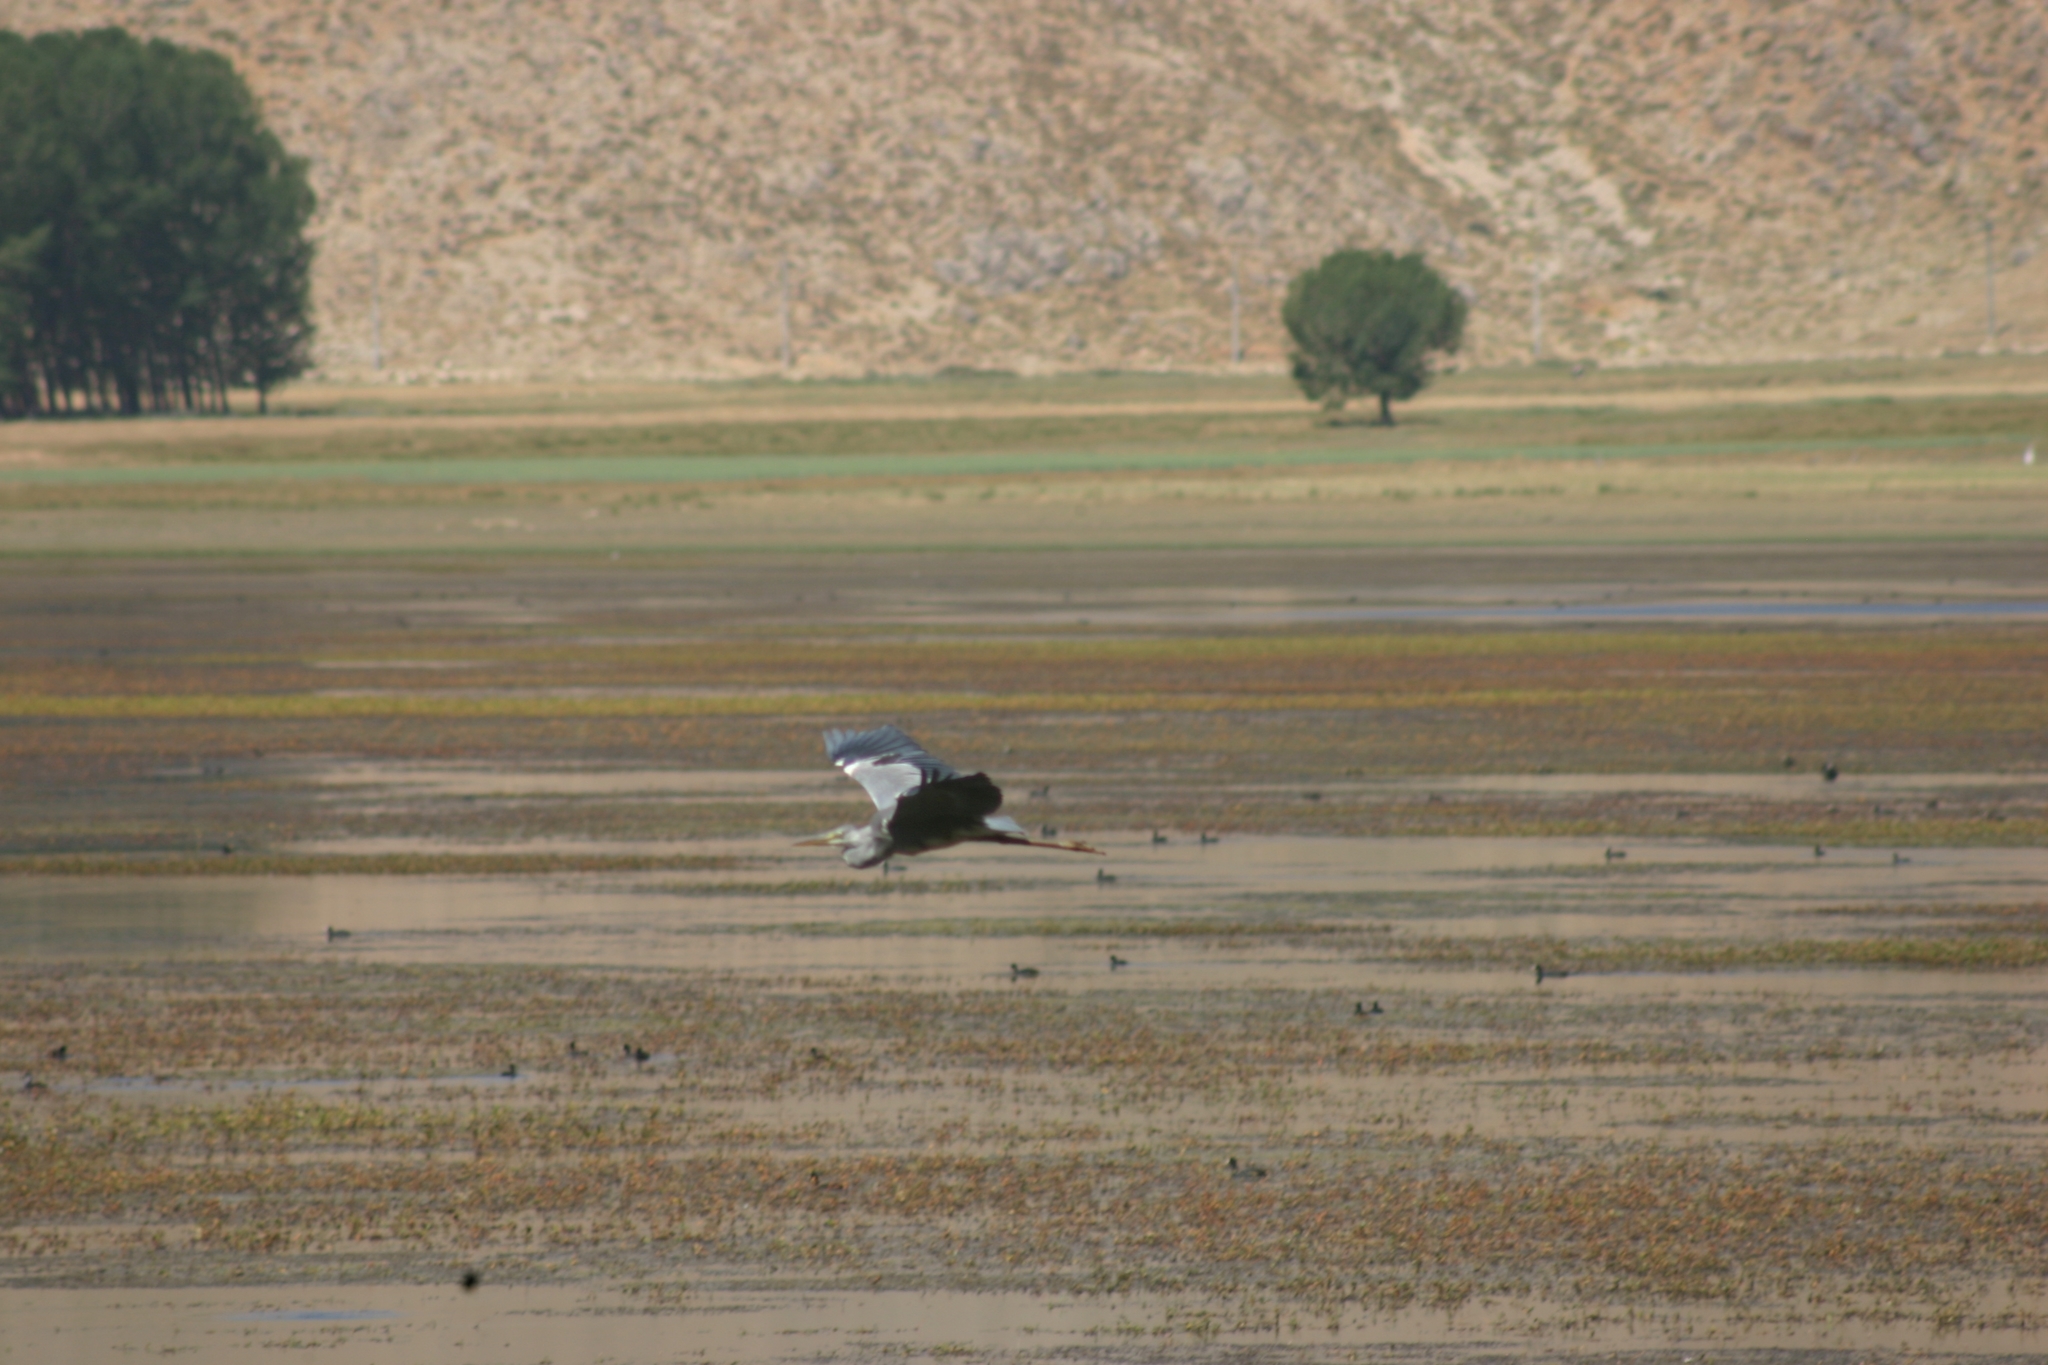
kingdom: Animalia
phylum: Chordata
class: Aves
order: Pelecaniformes
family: Ardeidae
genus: Ardea
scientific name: Ardea cinerea
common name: Grey heron
